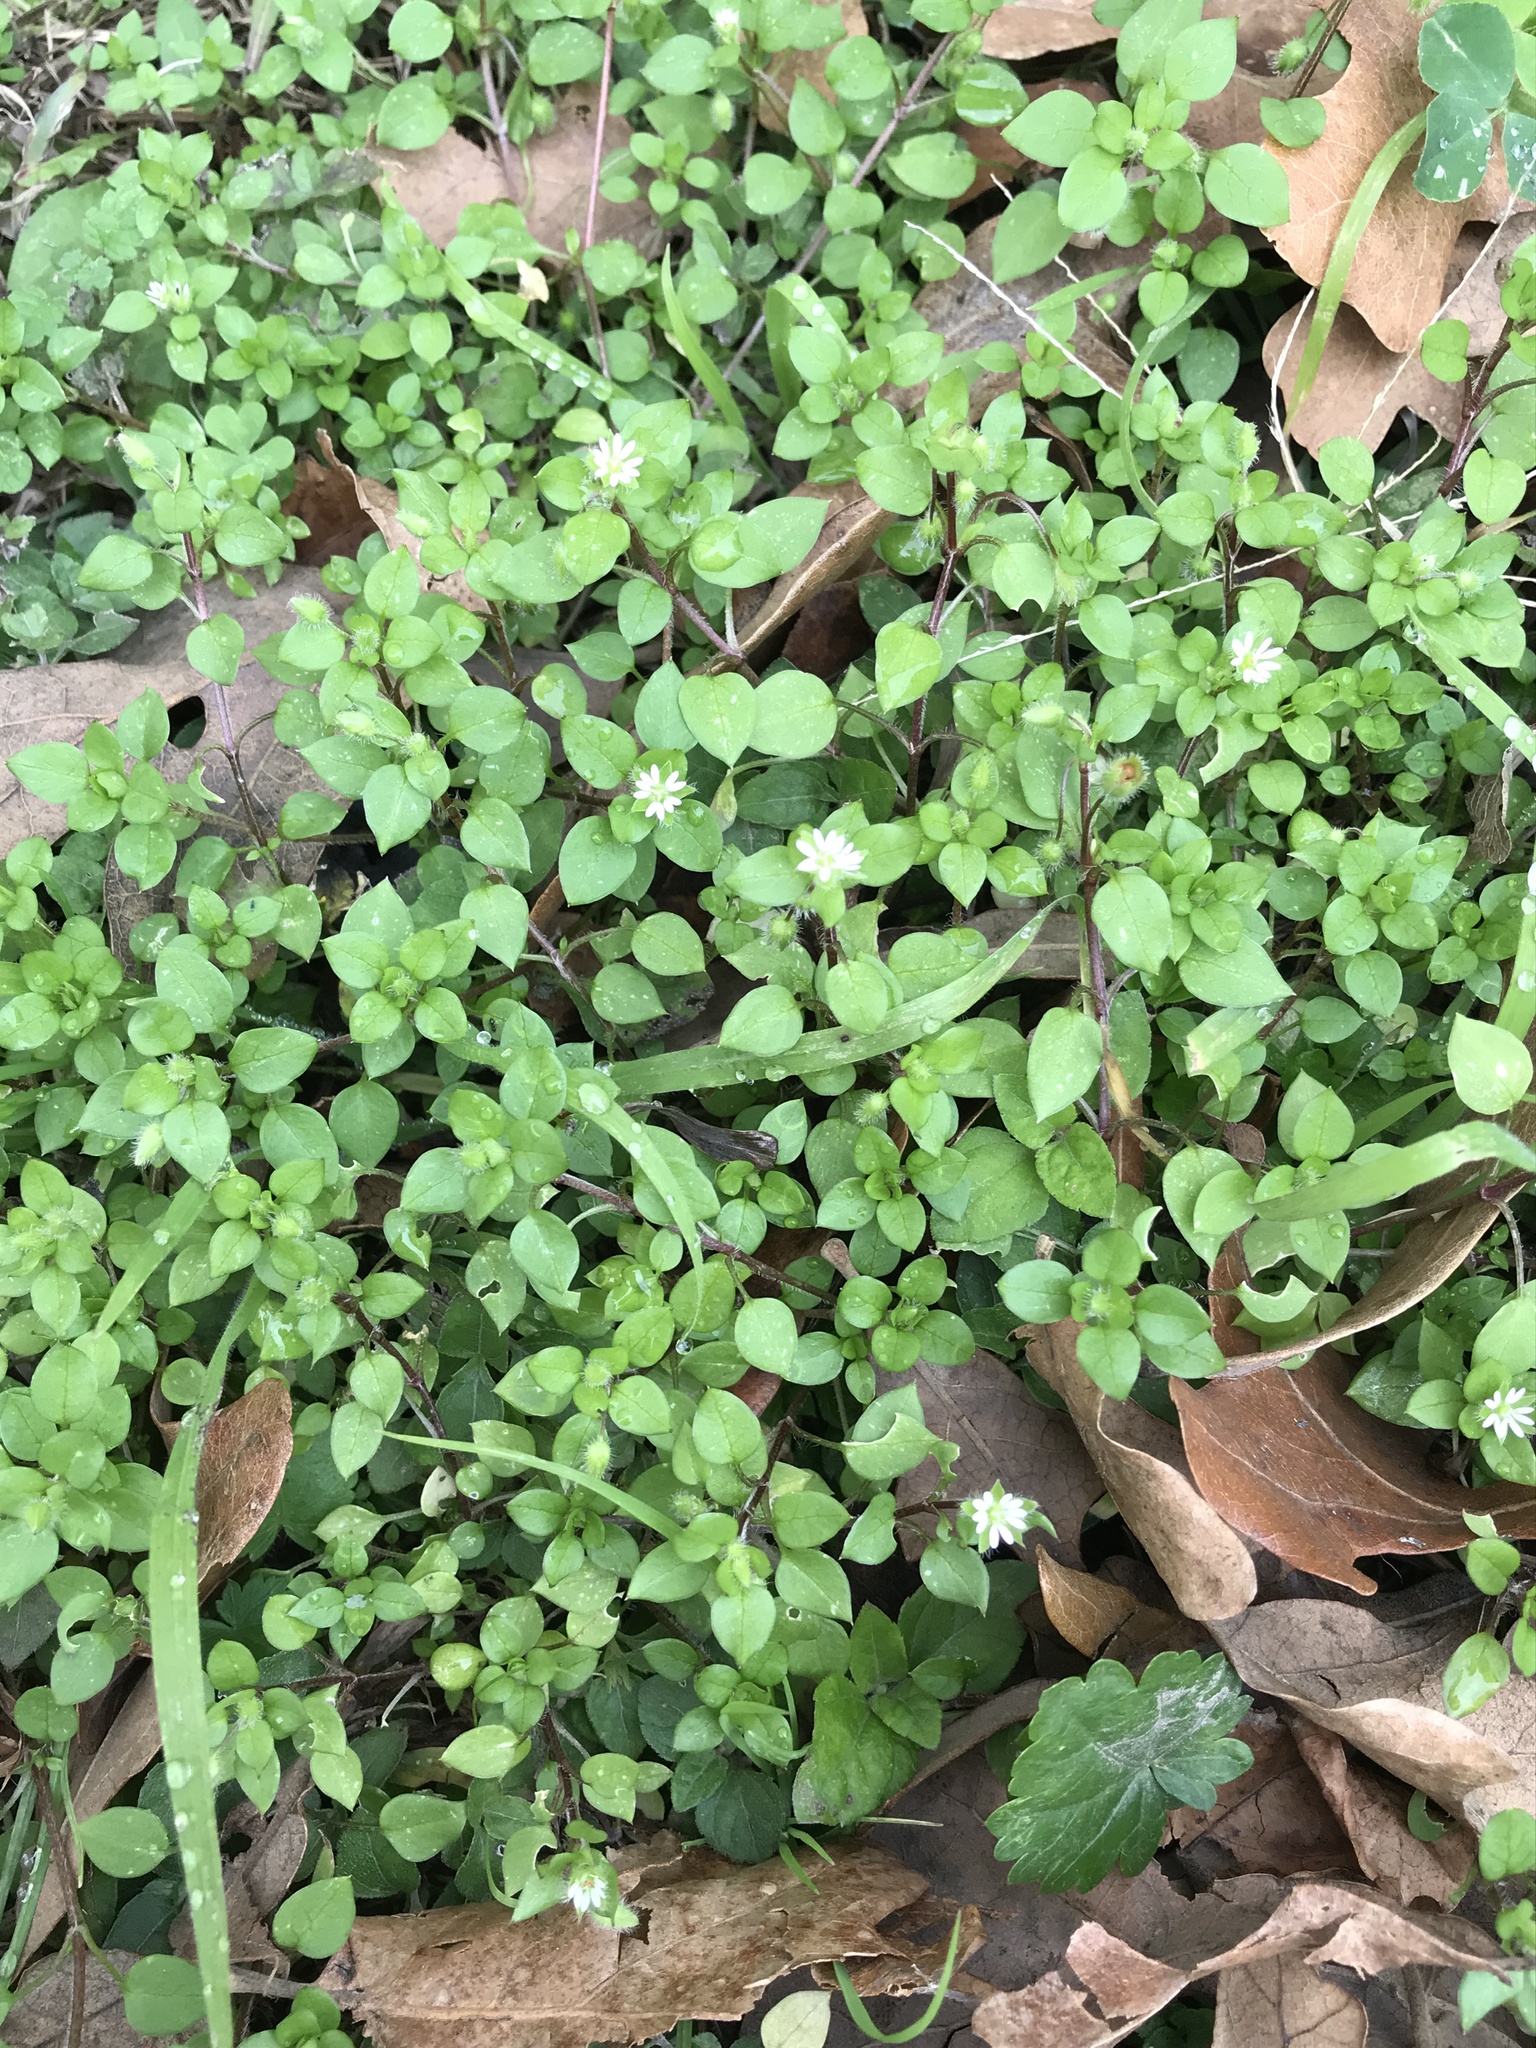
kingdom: Plantae
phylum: Tracheophyta
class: Magnoliopsida
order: Caryophyllales
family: Caryophyllaceae
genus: Stellaria
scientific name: Stellaria media
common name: Common chickweed
